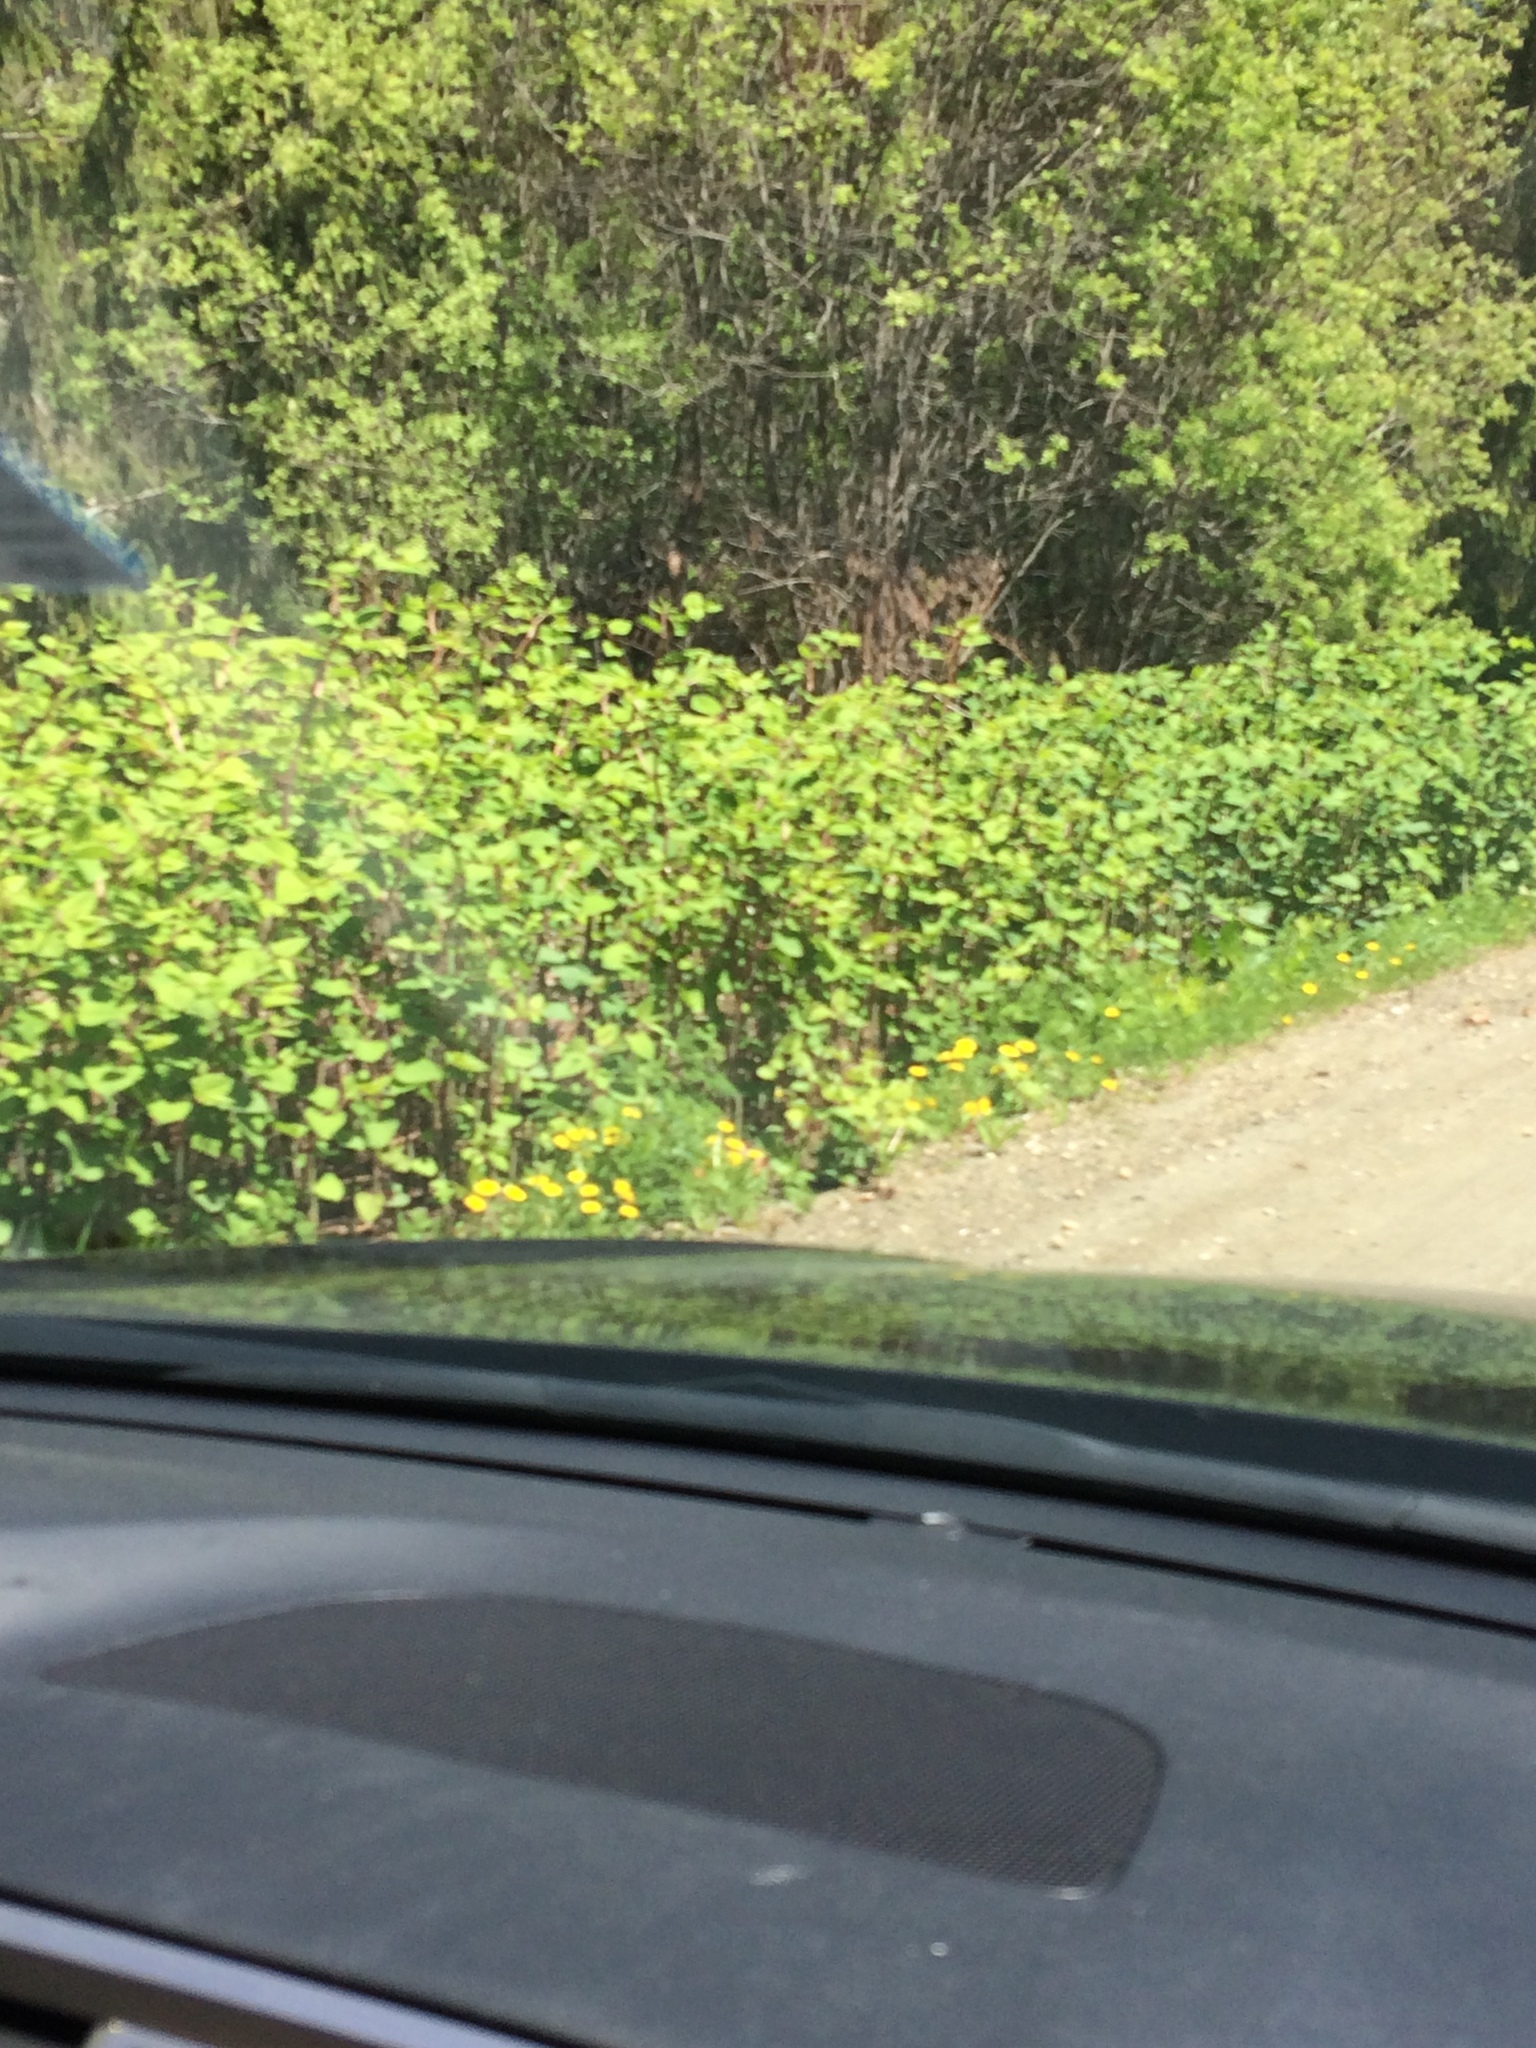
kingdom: Plantae
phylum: Tracheophyta
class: Magnoliopsida
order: Caryophyllales
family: Polygonaceae
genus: Reynoutria
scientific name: Reynoutria japonica
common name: Japanese knotweed
